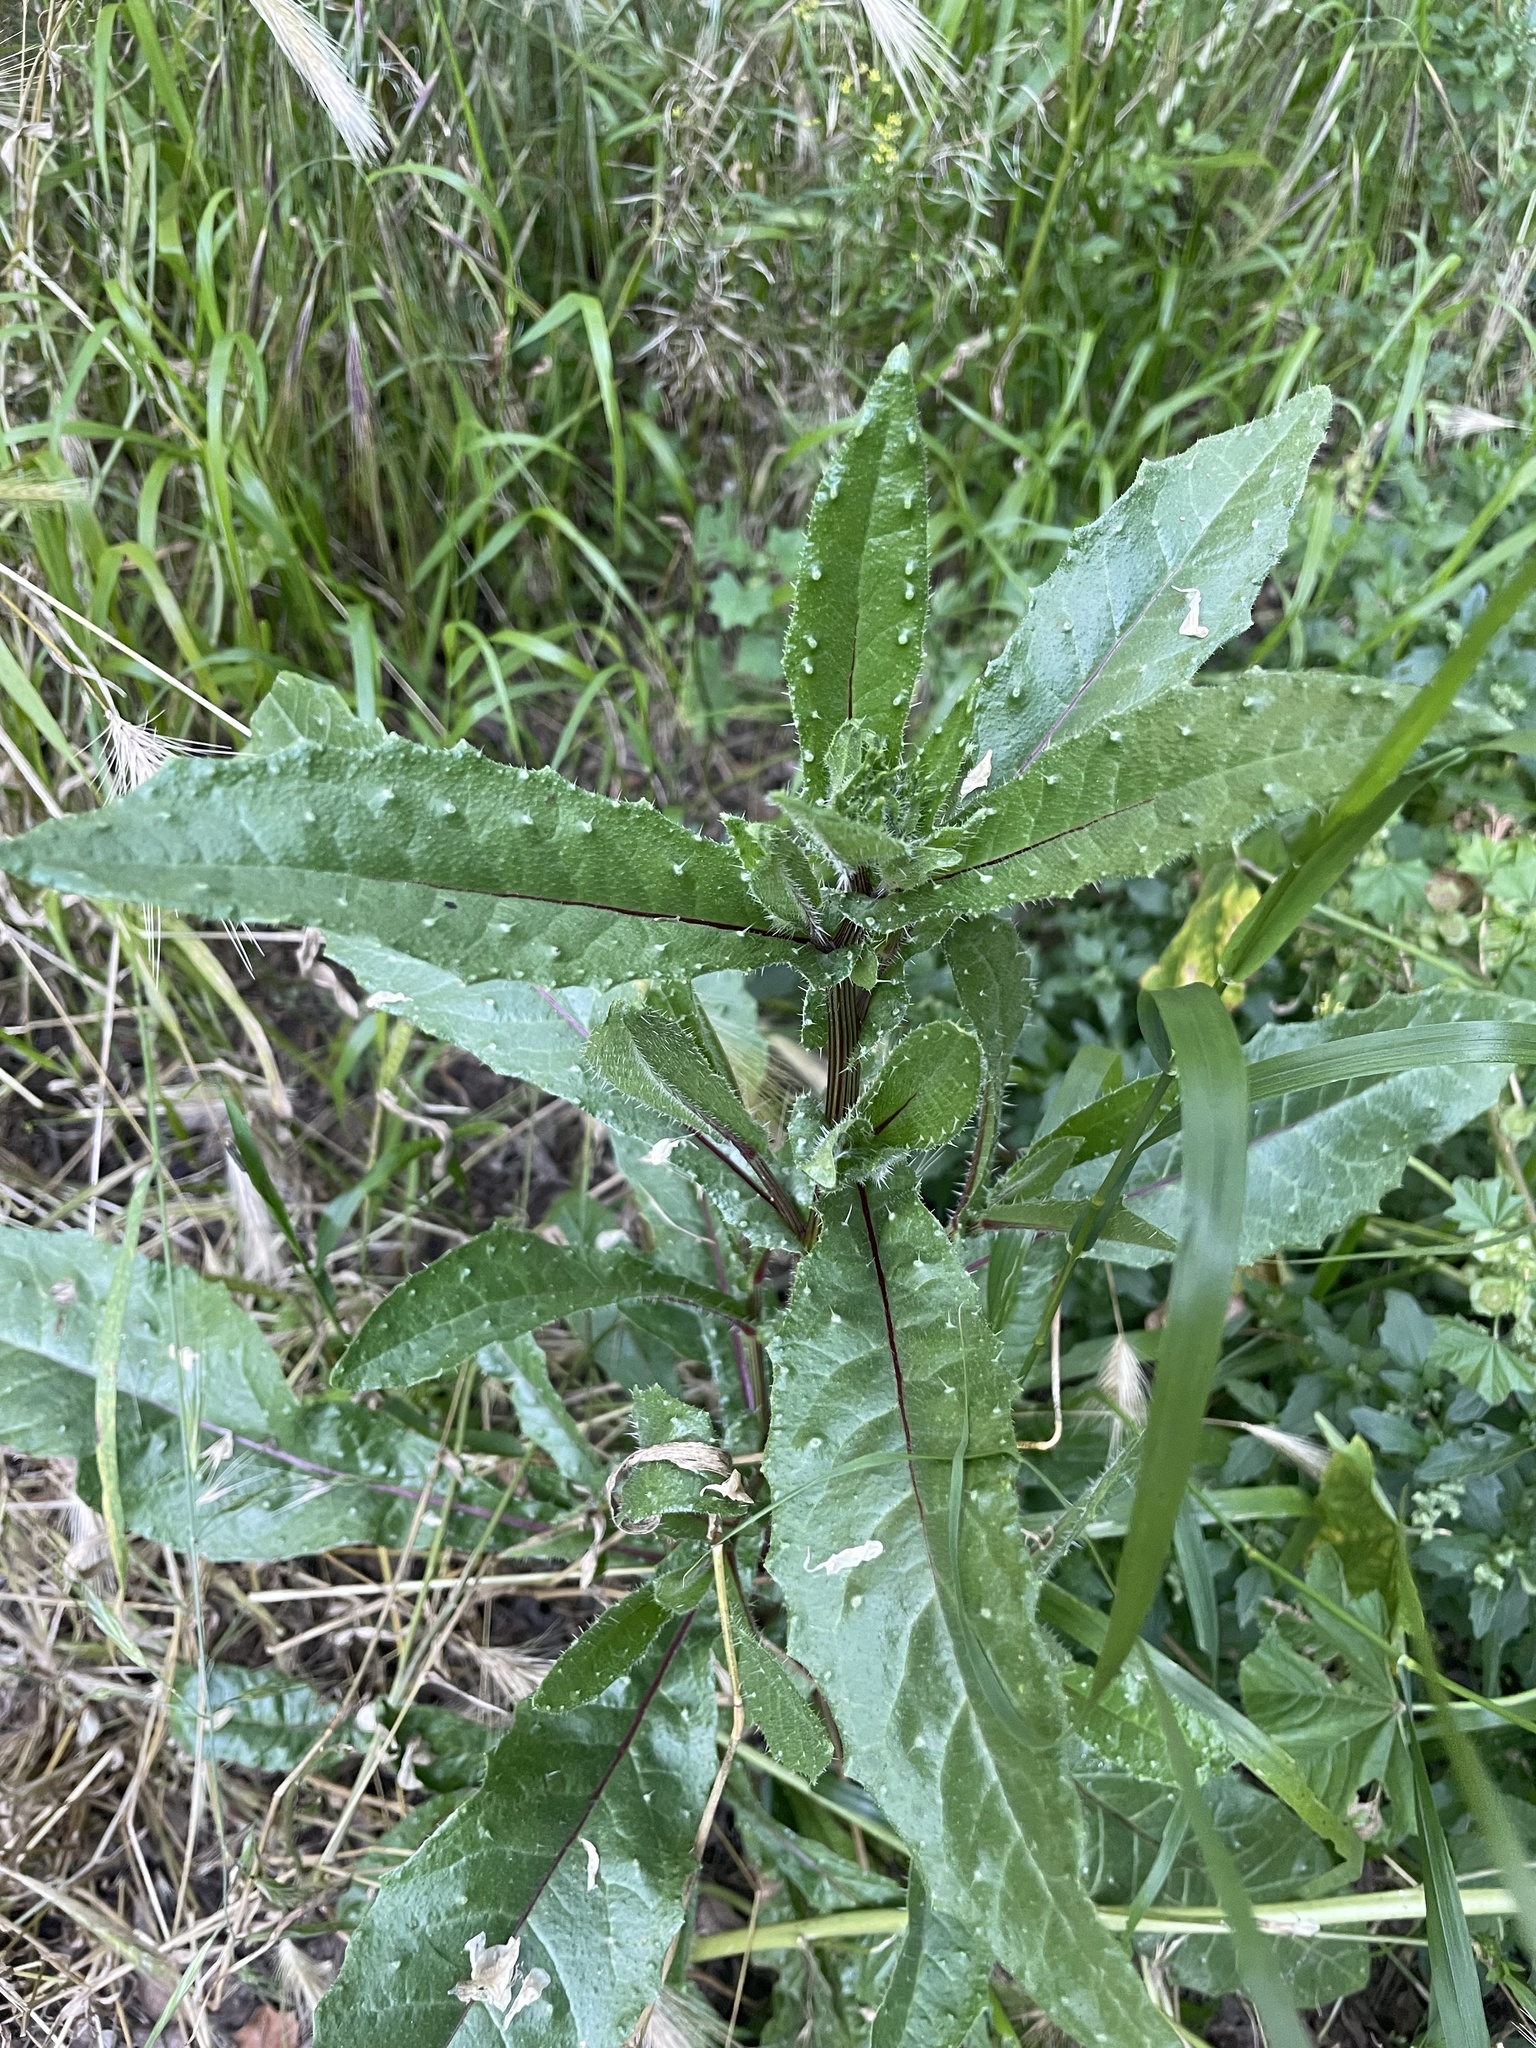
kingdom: Plantae
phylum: Tracheophyta
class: Magnoliopsida
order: Asterales
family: Asteraceae
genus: Helminthotheca
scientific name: Helminthotheca echioides
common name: Ox-tongue
